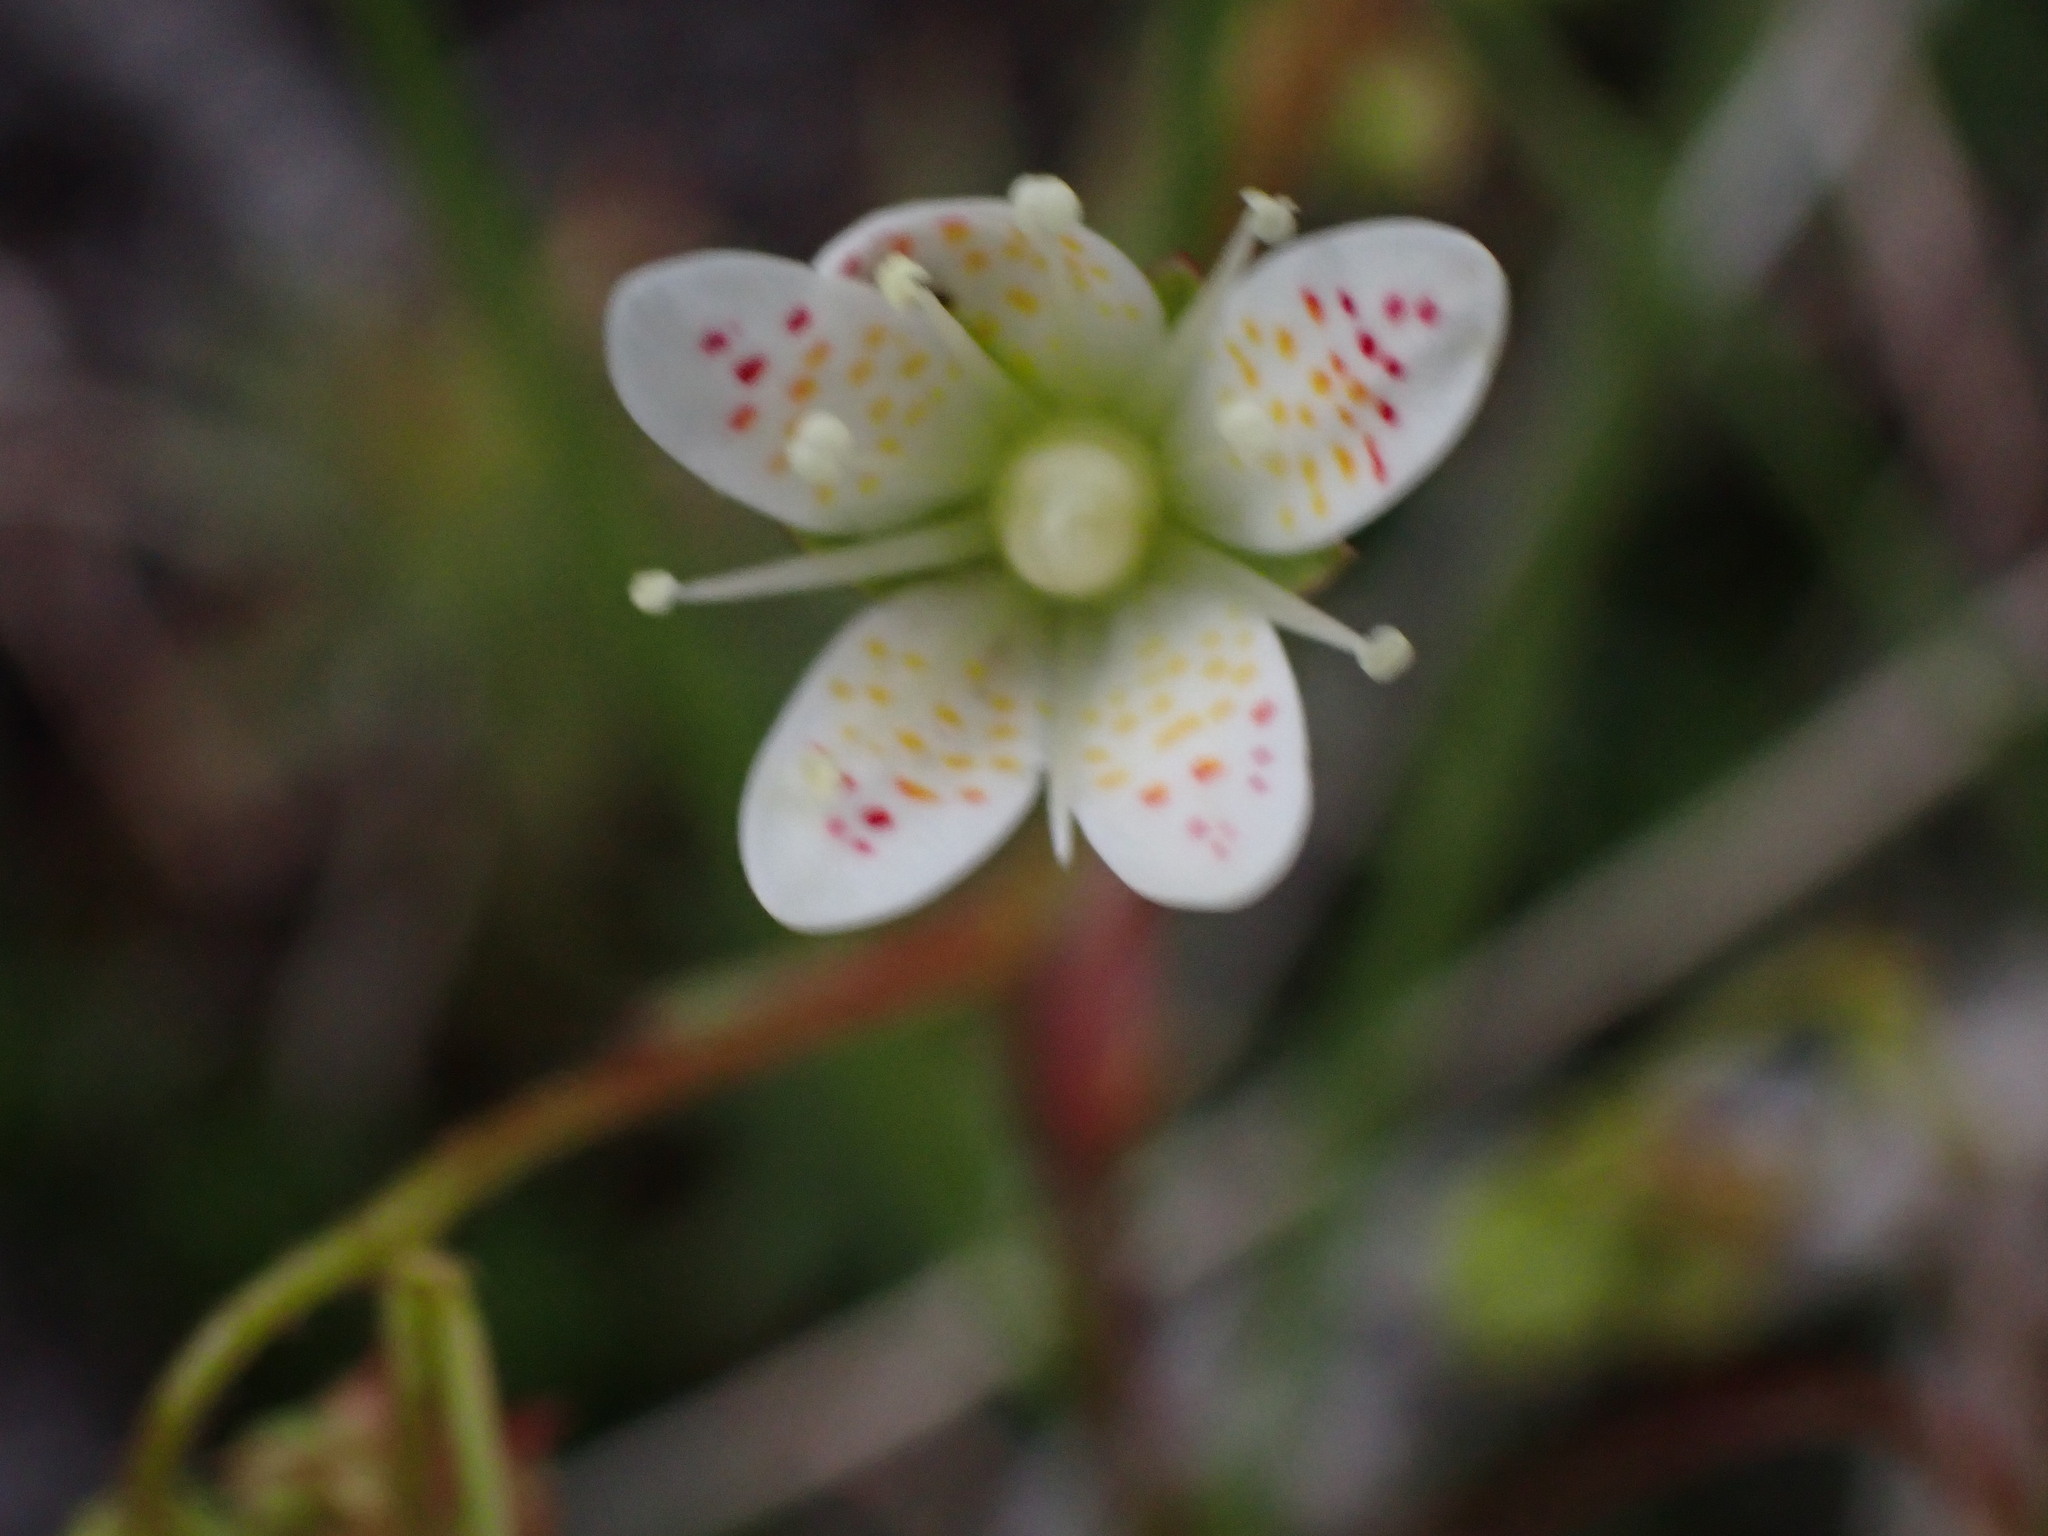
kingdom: Plantae
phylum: Tracheophyta
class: Magnoliopsida
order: Saxifragales
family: Saxifragaceae
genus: Saxifraga
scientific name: Saxifraga bronchialis
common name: Matted saxifrage
